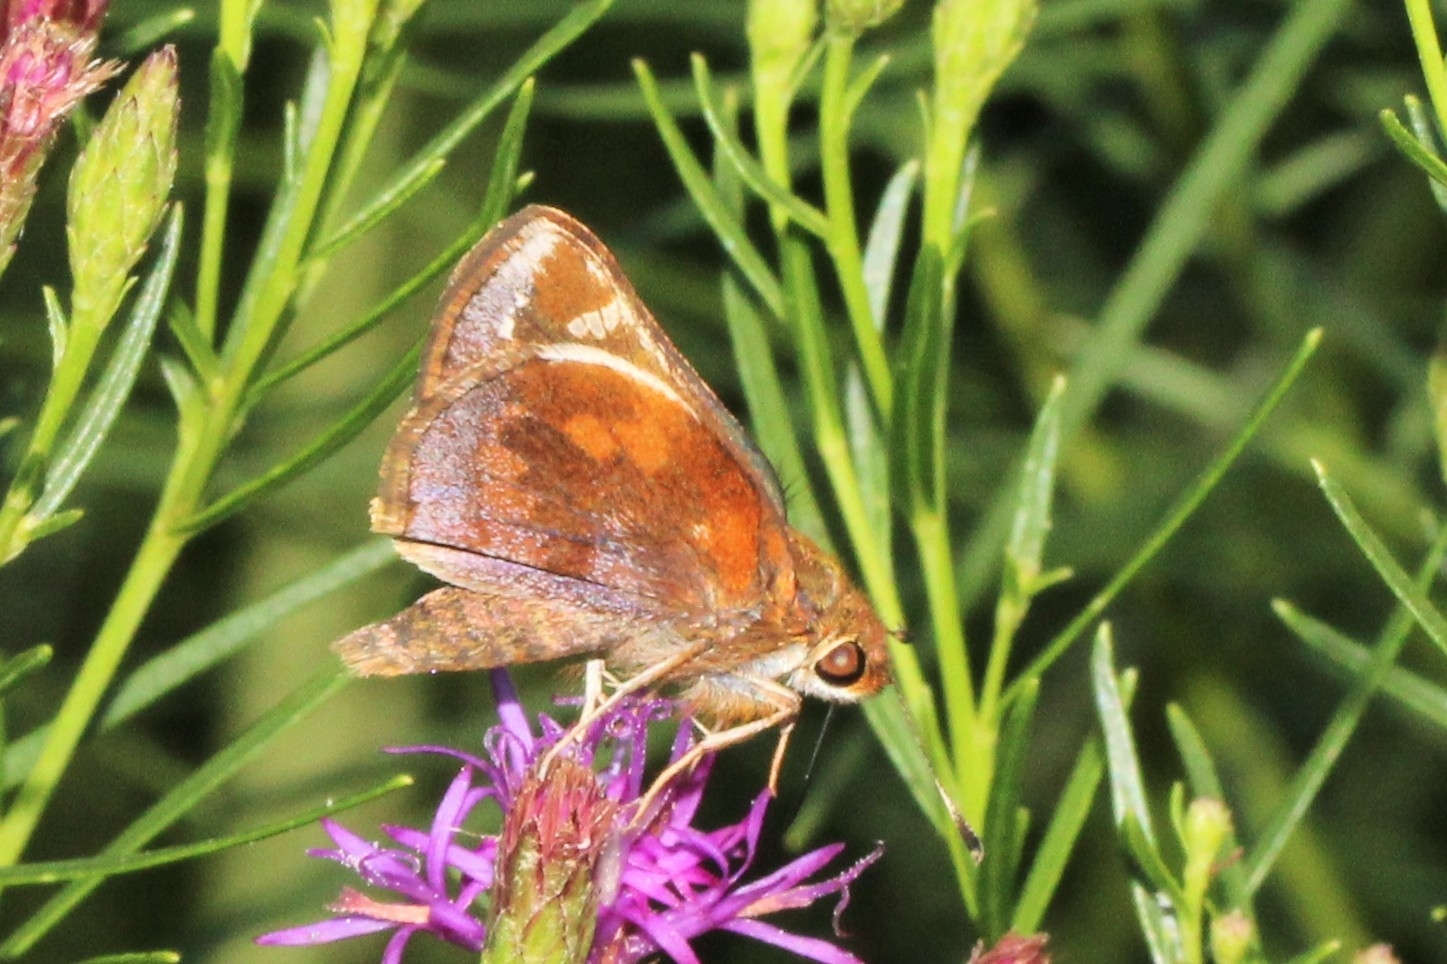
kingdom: Animalia
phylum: Arthropoda
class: Insecta
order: Lepidoptera
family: Hesperiidae
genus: Lon
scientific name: Lon zabulon
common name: Zabulon skipper
